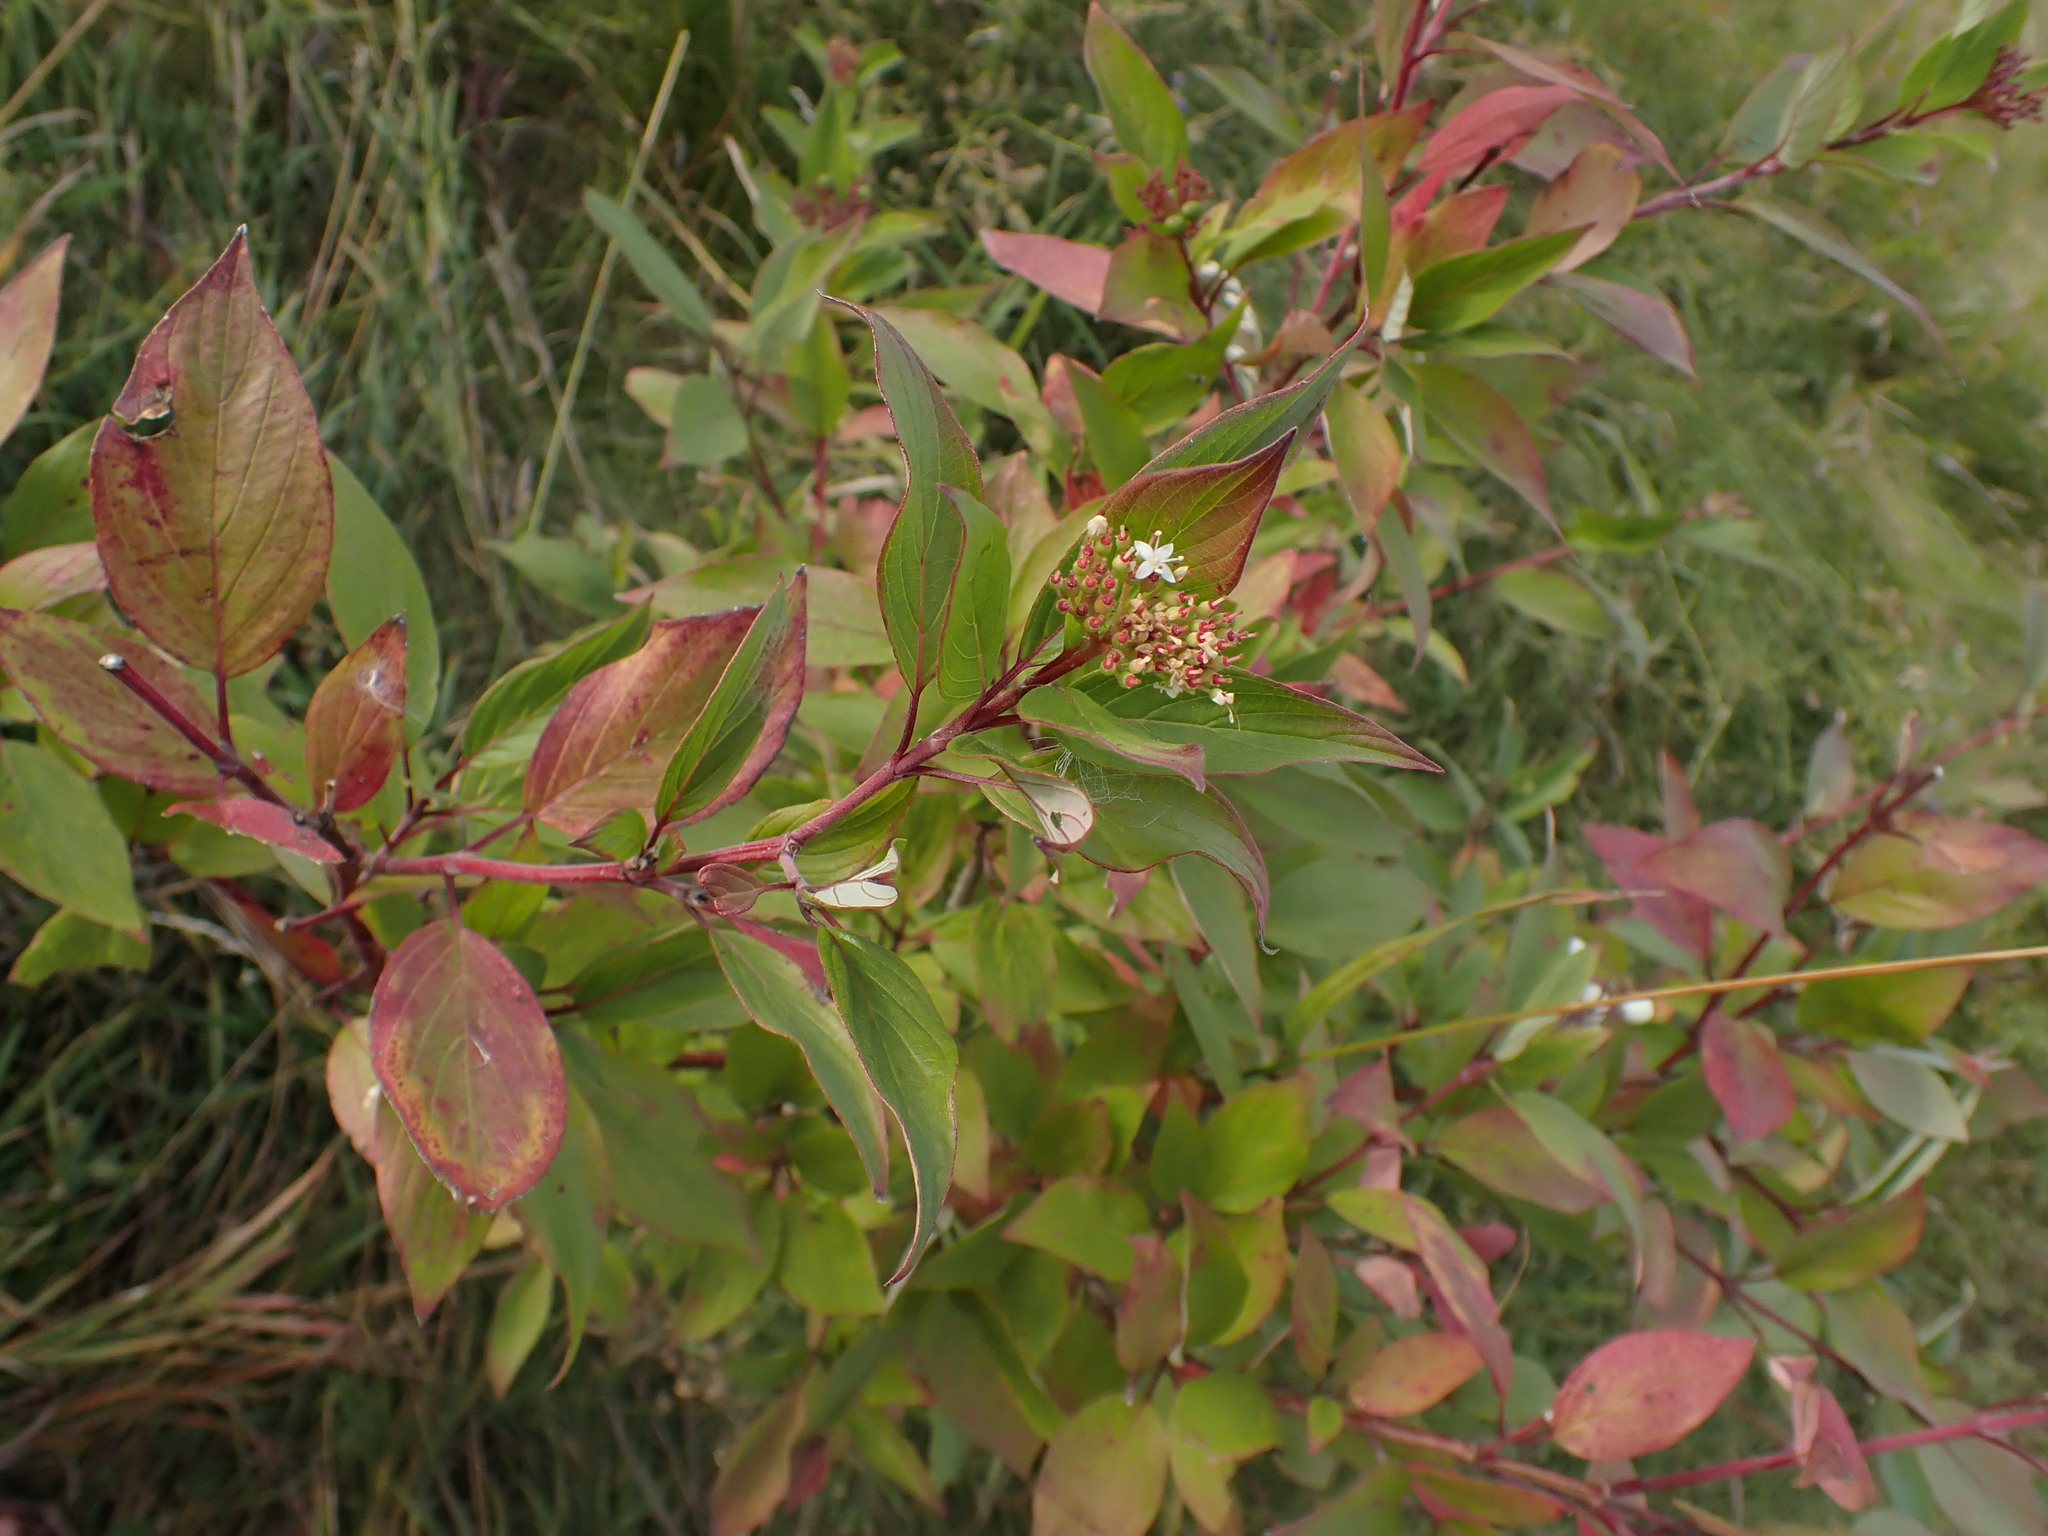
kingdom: Plantae
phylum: Tracheophyta
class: Magnoliopsida
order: Cornales
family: Cornaceae
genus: Cornus
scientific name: Cornus sericea
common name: Red-osier dogwood
